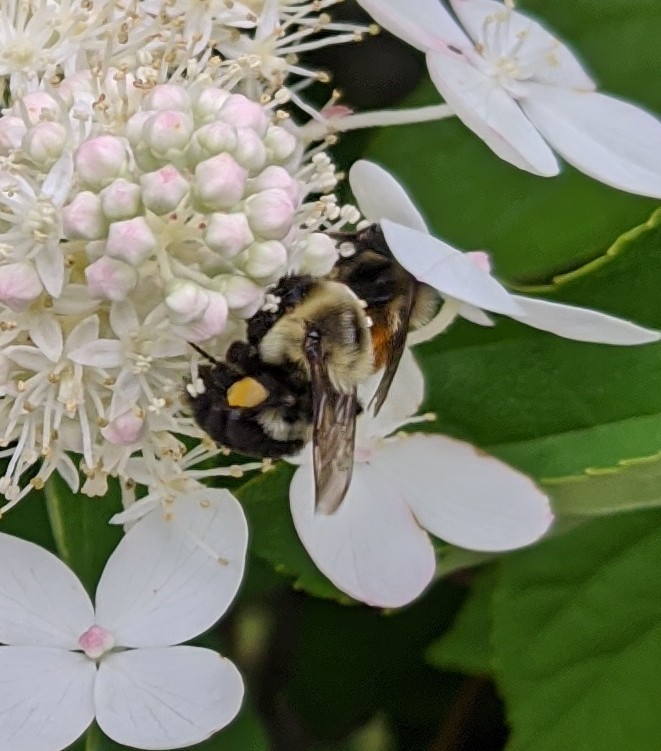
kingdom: Animalia
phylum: Arthropoda
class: Insecta
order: Hymenoptera
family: Apidae
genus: Bombus
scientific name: Bombus impatiens
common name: Common eastern bumble bee
